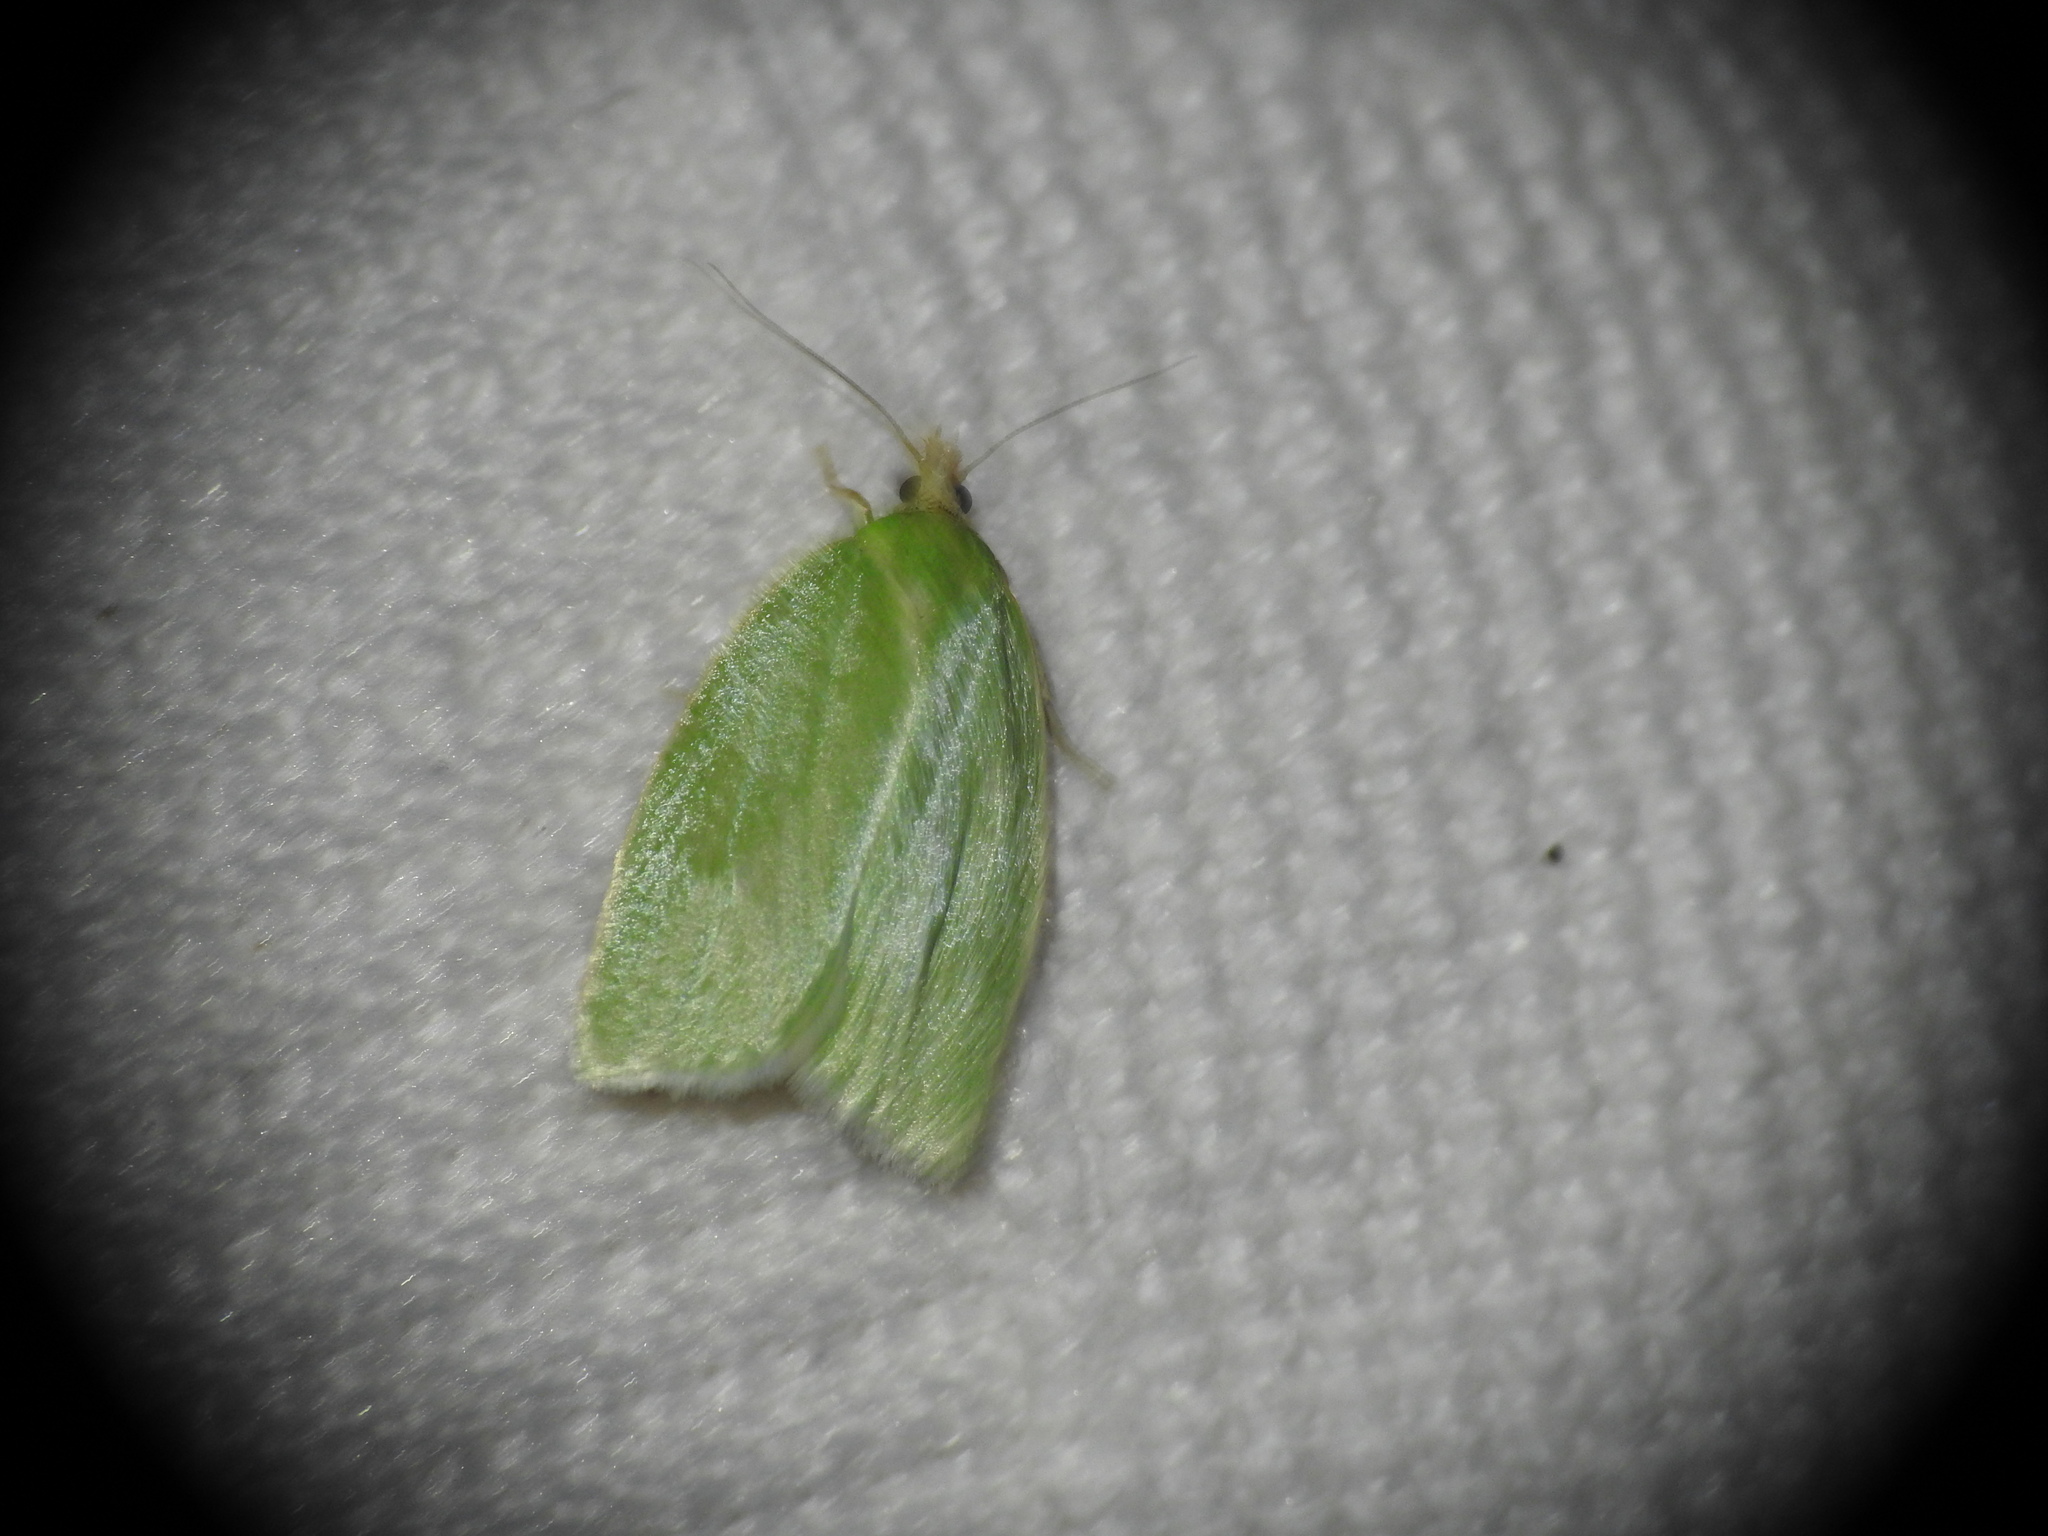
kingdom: Animalia
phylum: Arthropoda
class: Insecta
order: Lepidoptera
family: Tortricidae
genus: Tortrix
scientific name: Tortrix viridana
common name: Green oak tortrix
